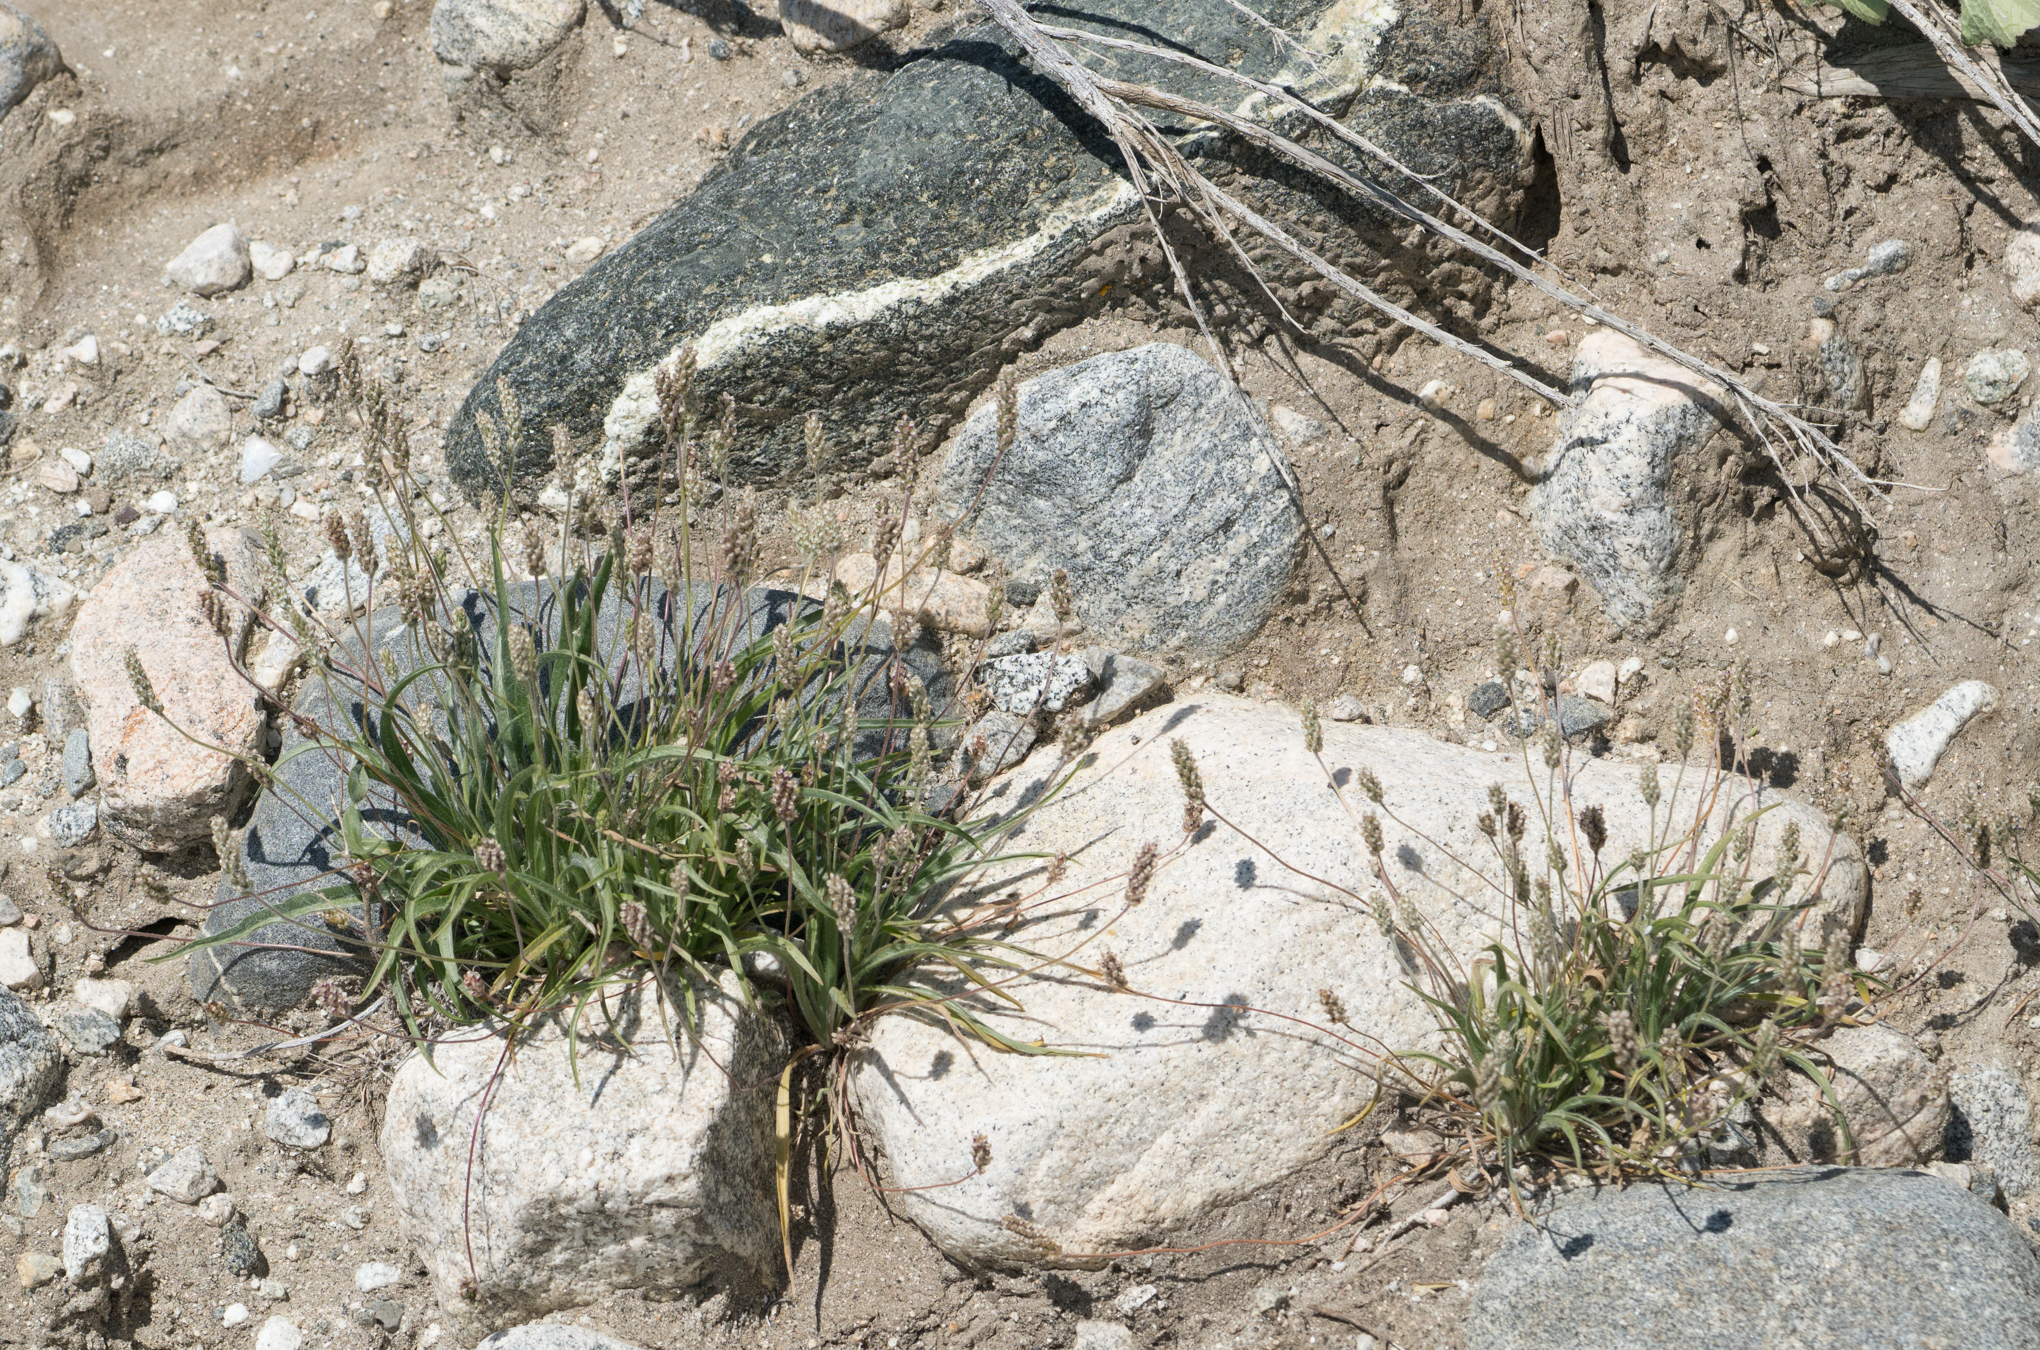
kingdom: Plantae
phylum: Tracheophyta
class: Magnoliopsida
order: Lamiales
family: Plantaginaceae
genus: Plantago
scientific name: Plantago ovata
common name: Blond plantain
